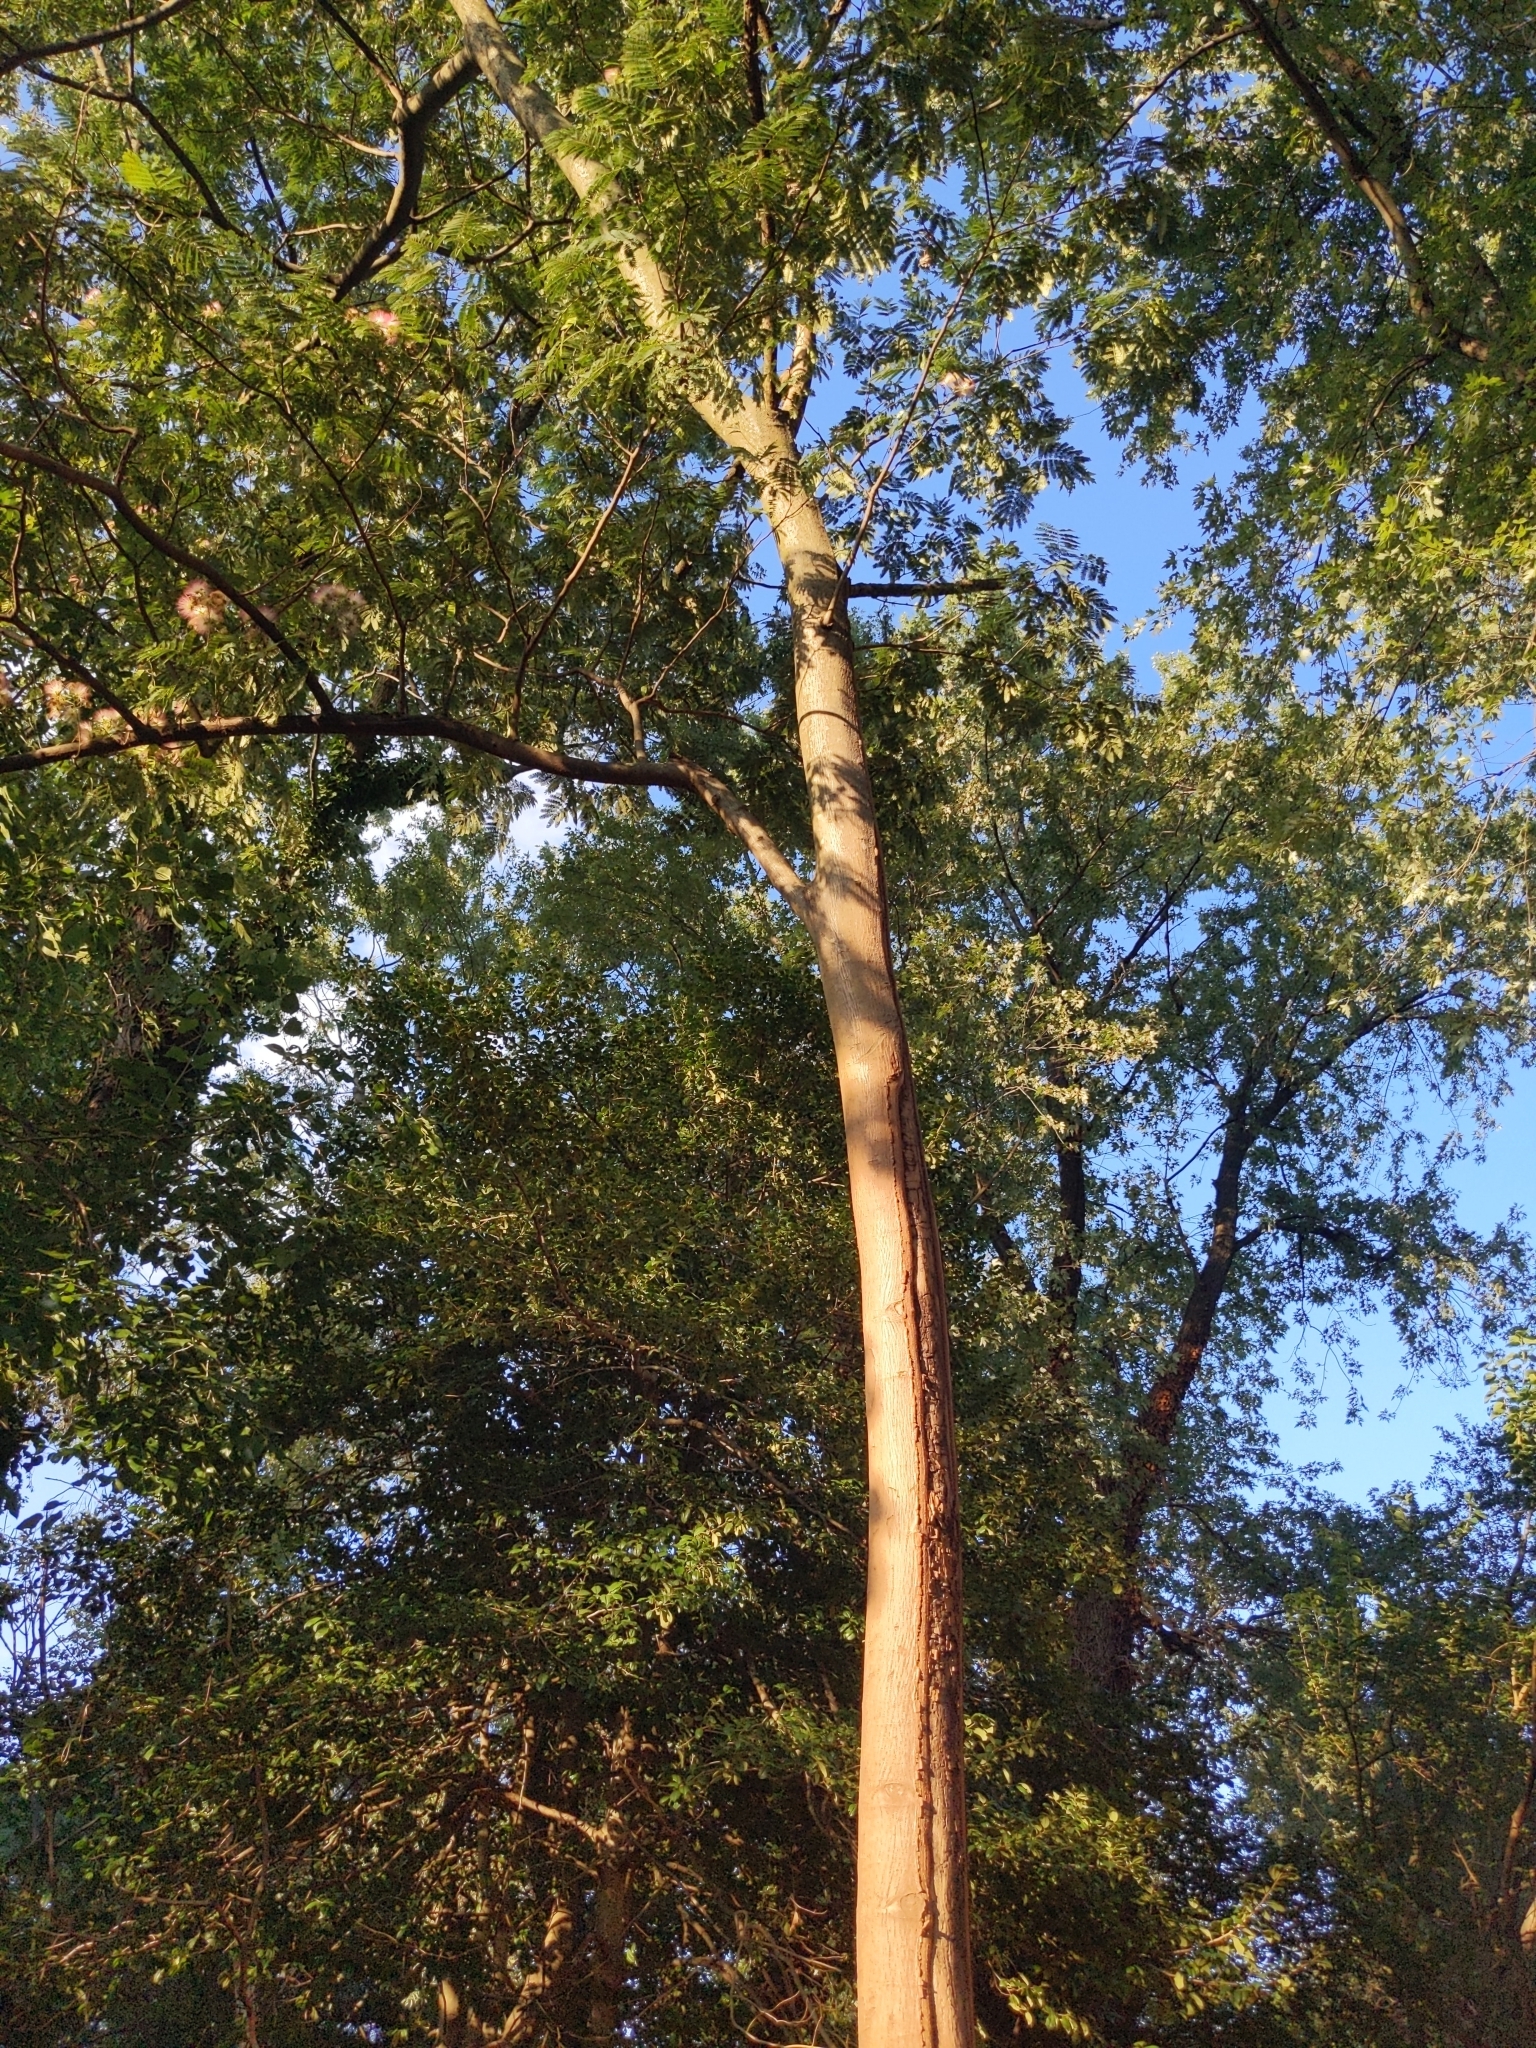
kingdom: Plantae
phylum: Tracheophyta
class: Magnoliopsida
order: Fabales
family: Fabaceae
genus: Albizia
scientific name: Albizia julibrissin
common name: Silktree
